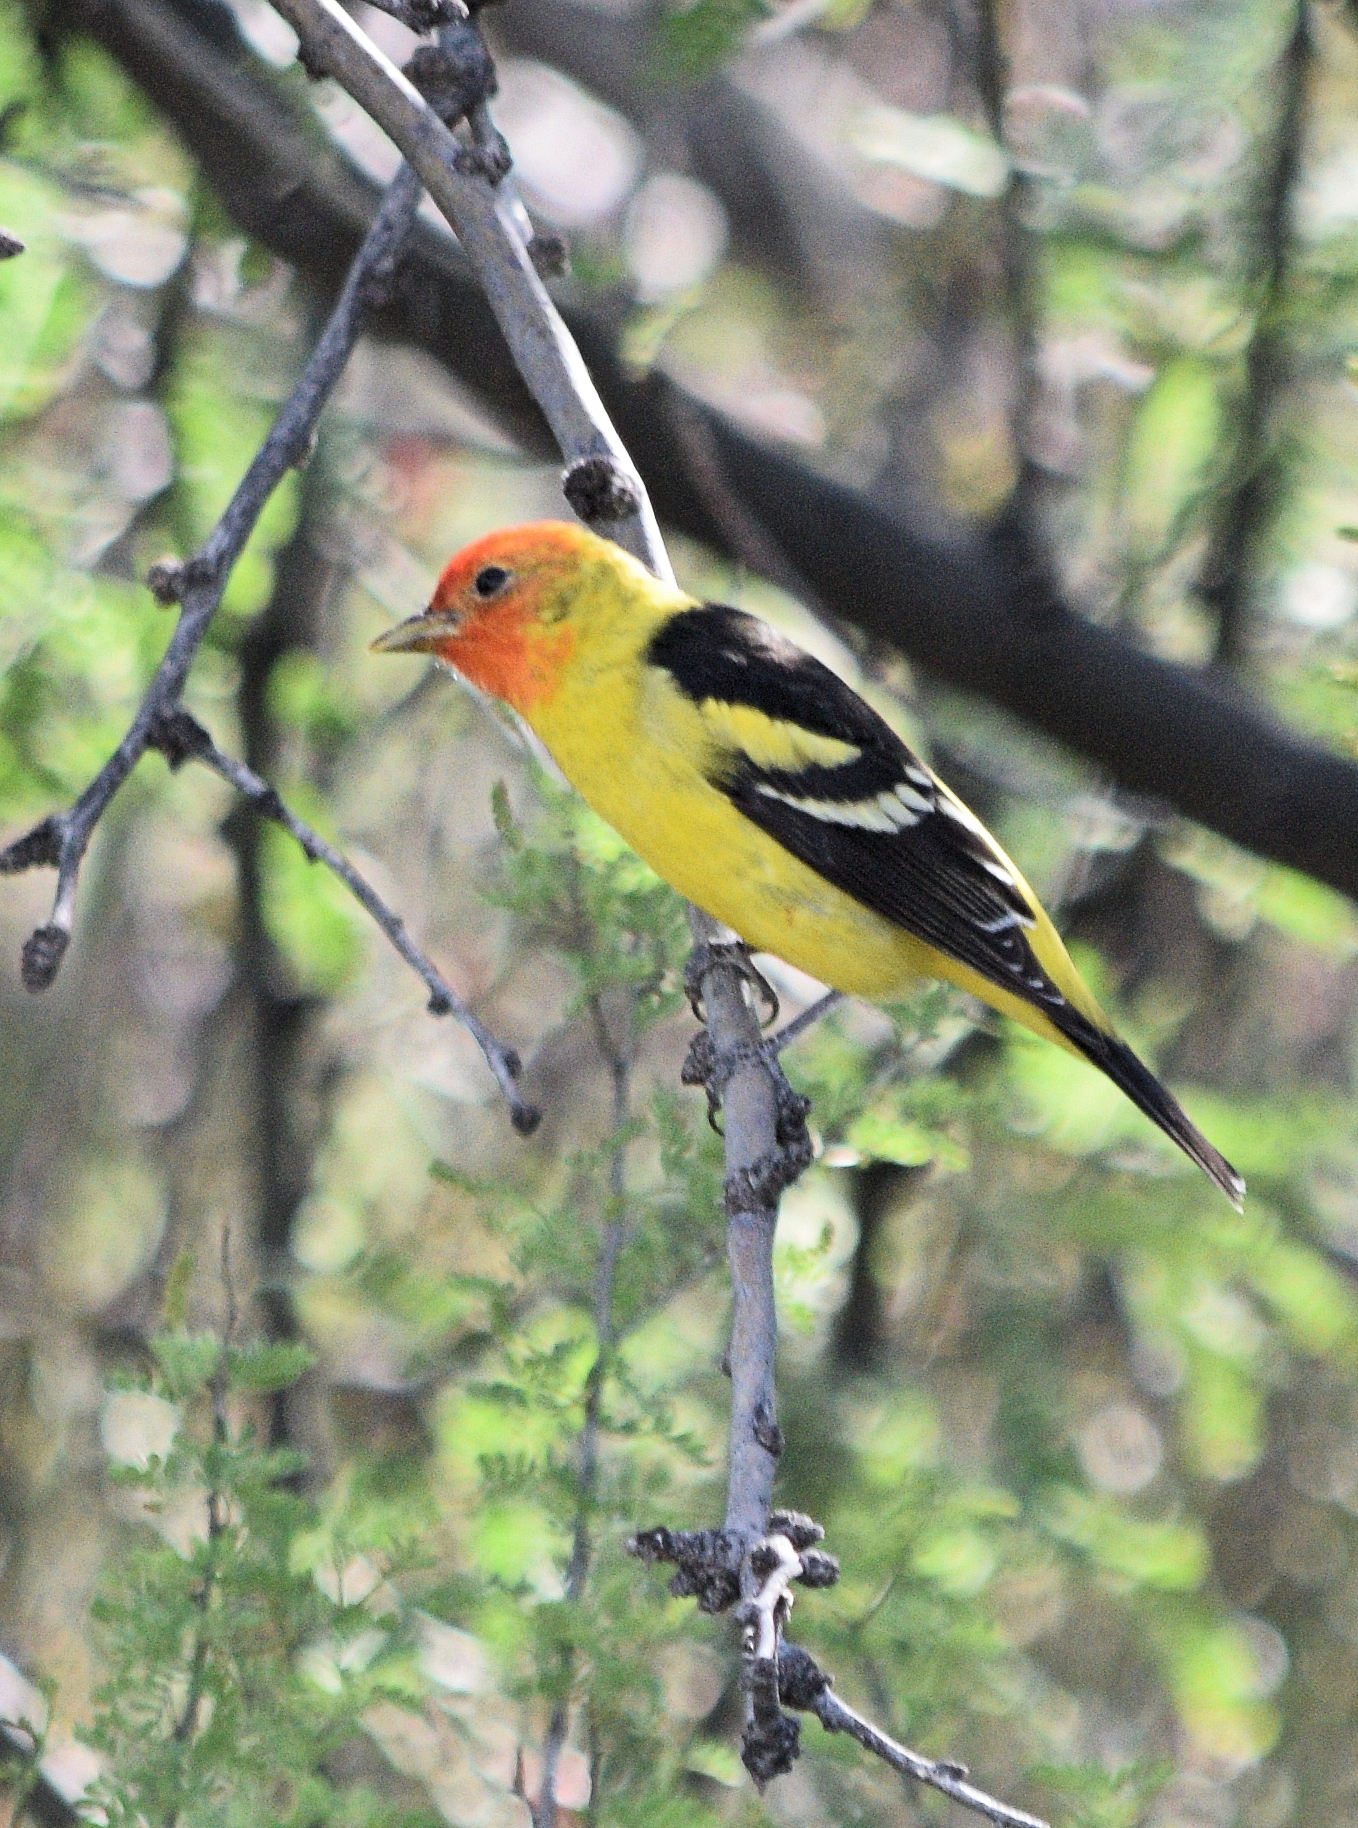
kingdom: Animalia
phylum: Chordata
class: Aves
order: Passeriformes
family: Cardinalidae
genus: Piranga
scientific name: Piranga ludoviciana
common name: Western tanager
